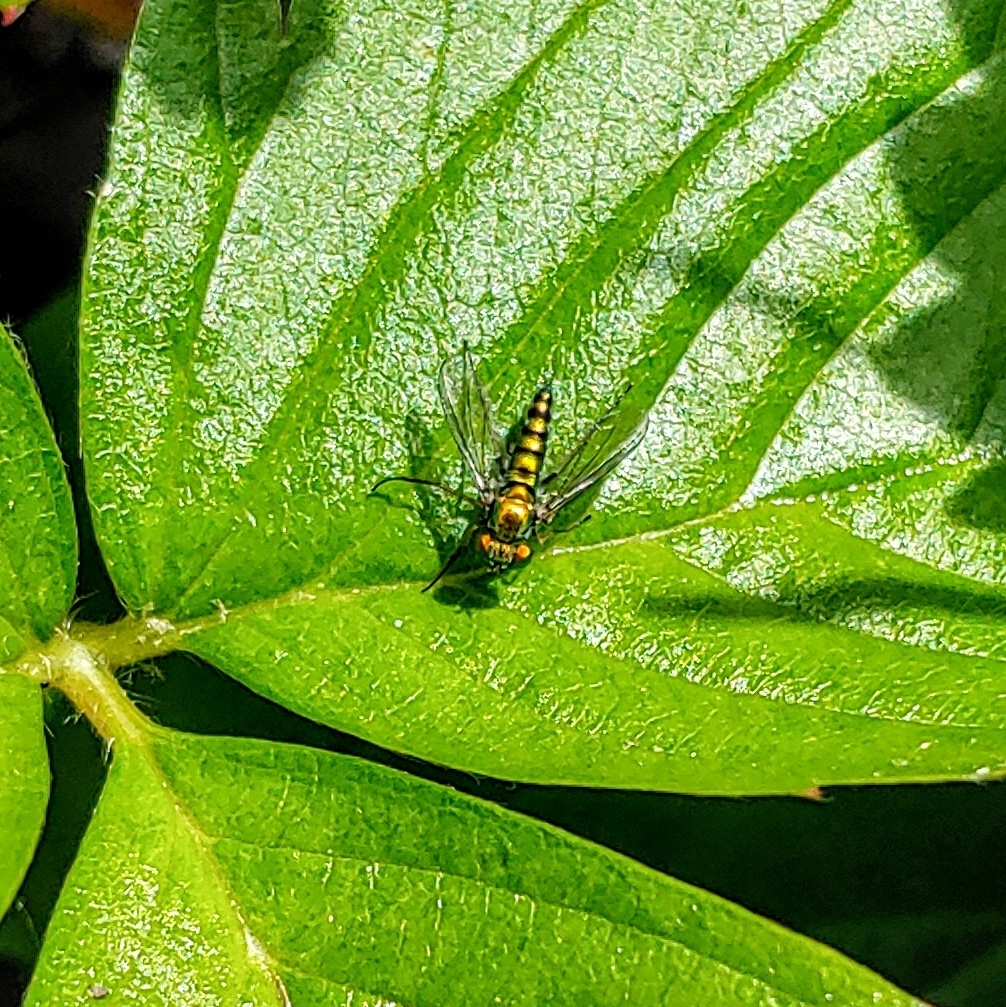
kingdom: Animalia
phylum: Arthropoda
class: Insecta
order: Diptera
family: Dolichopodidae
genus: Condylostylus
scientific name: Condylostylus caudatus
